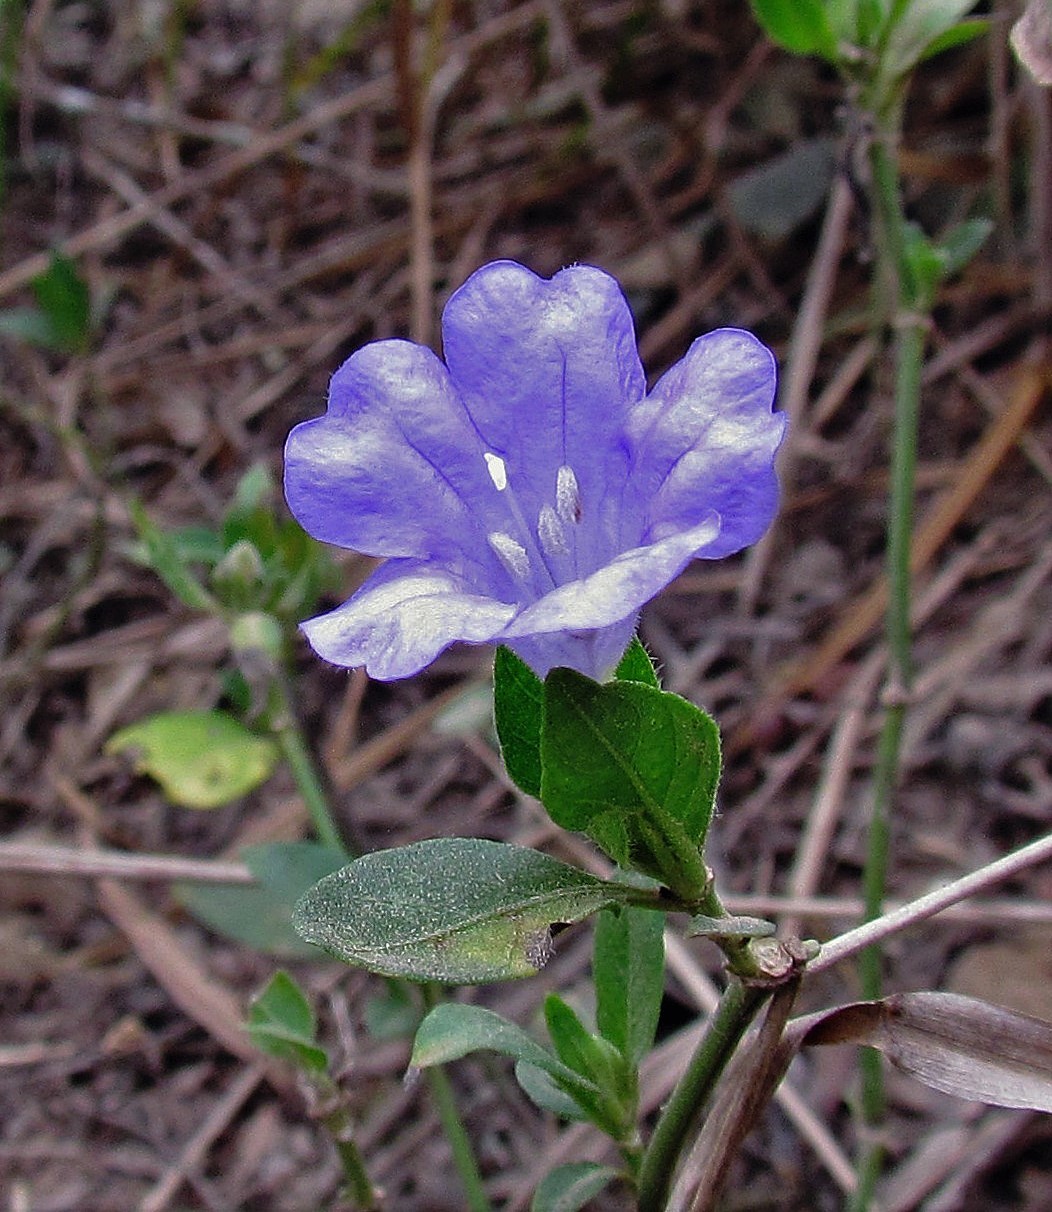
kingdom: Plantae
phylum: Tracheophyta
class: Magnoliopsida
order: Lamiales
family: Acanthaceae
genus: Ruellia
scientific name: Ruellia erythropus
